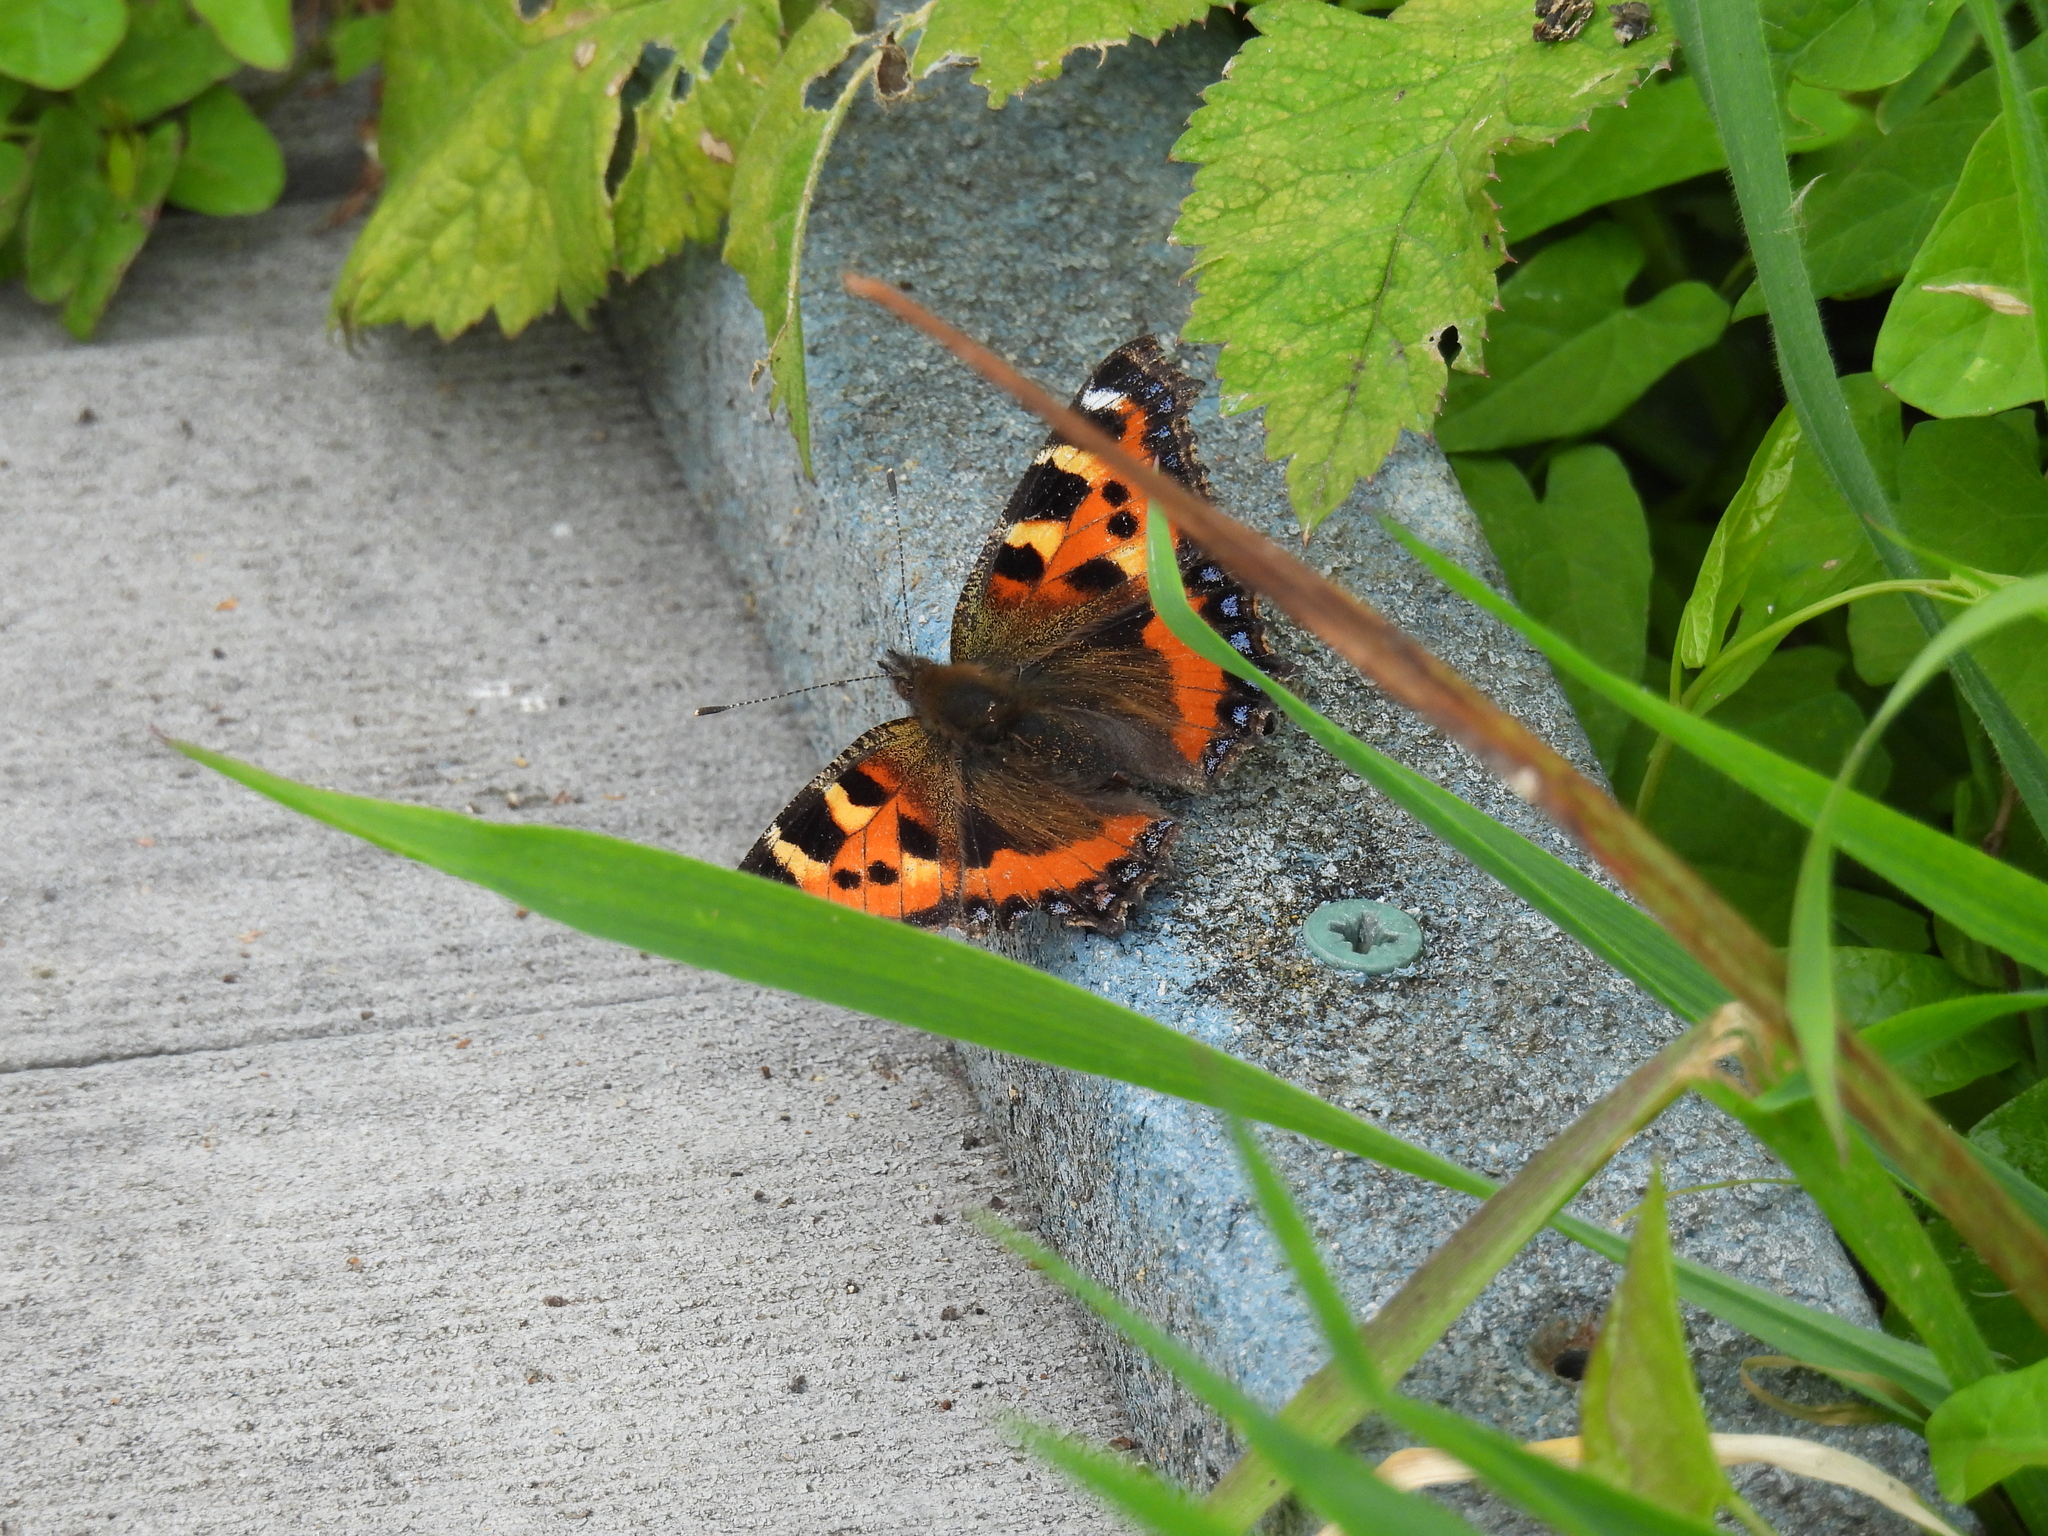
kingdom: Animalia
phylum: Arthropoda
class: Insecta
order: Lepidoptera
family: Nymphalidae
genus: Aglais
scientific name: Aglais urticae
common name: Small tortoiseshell
